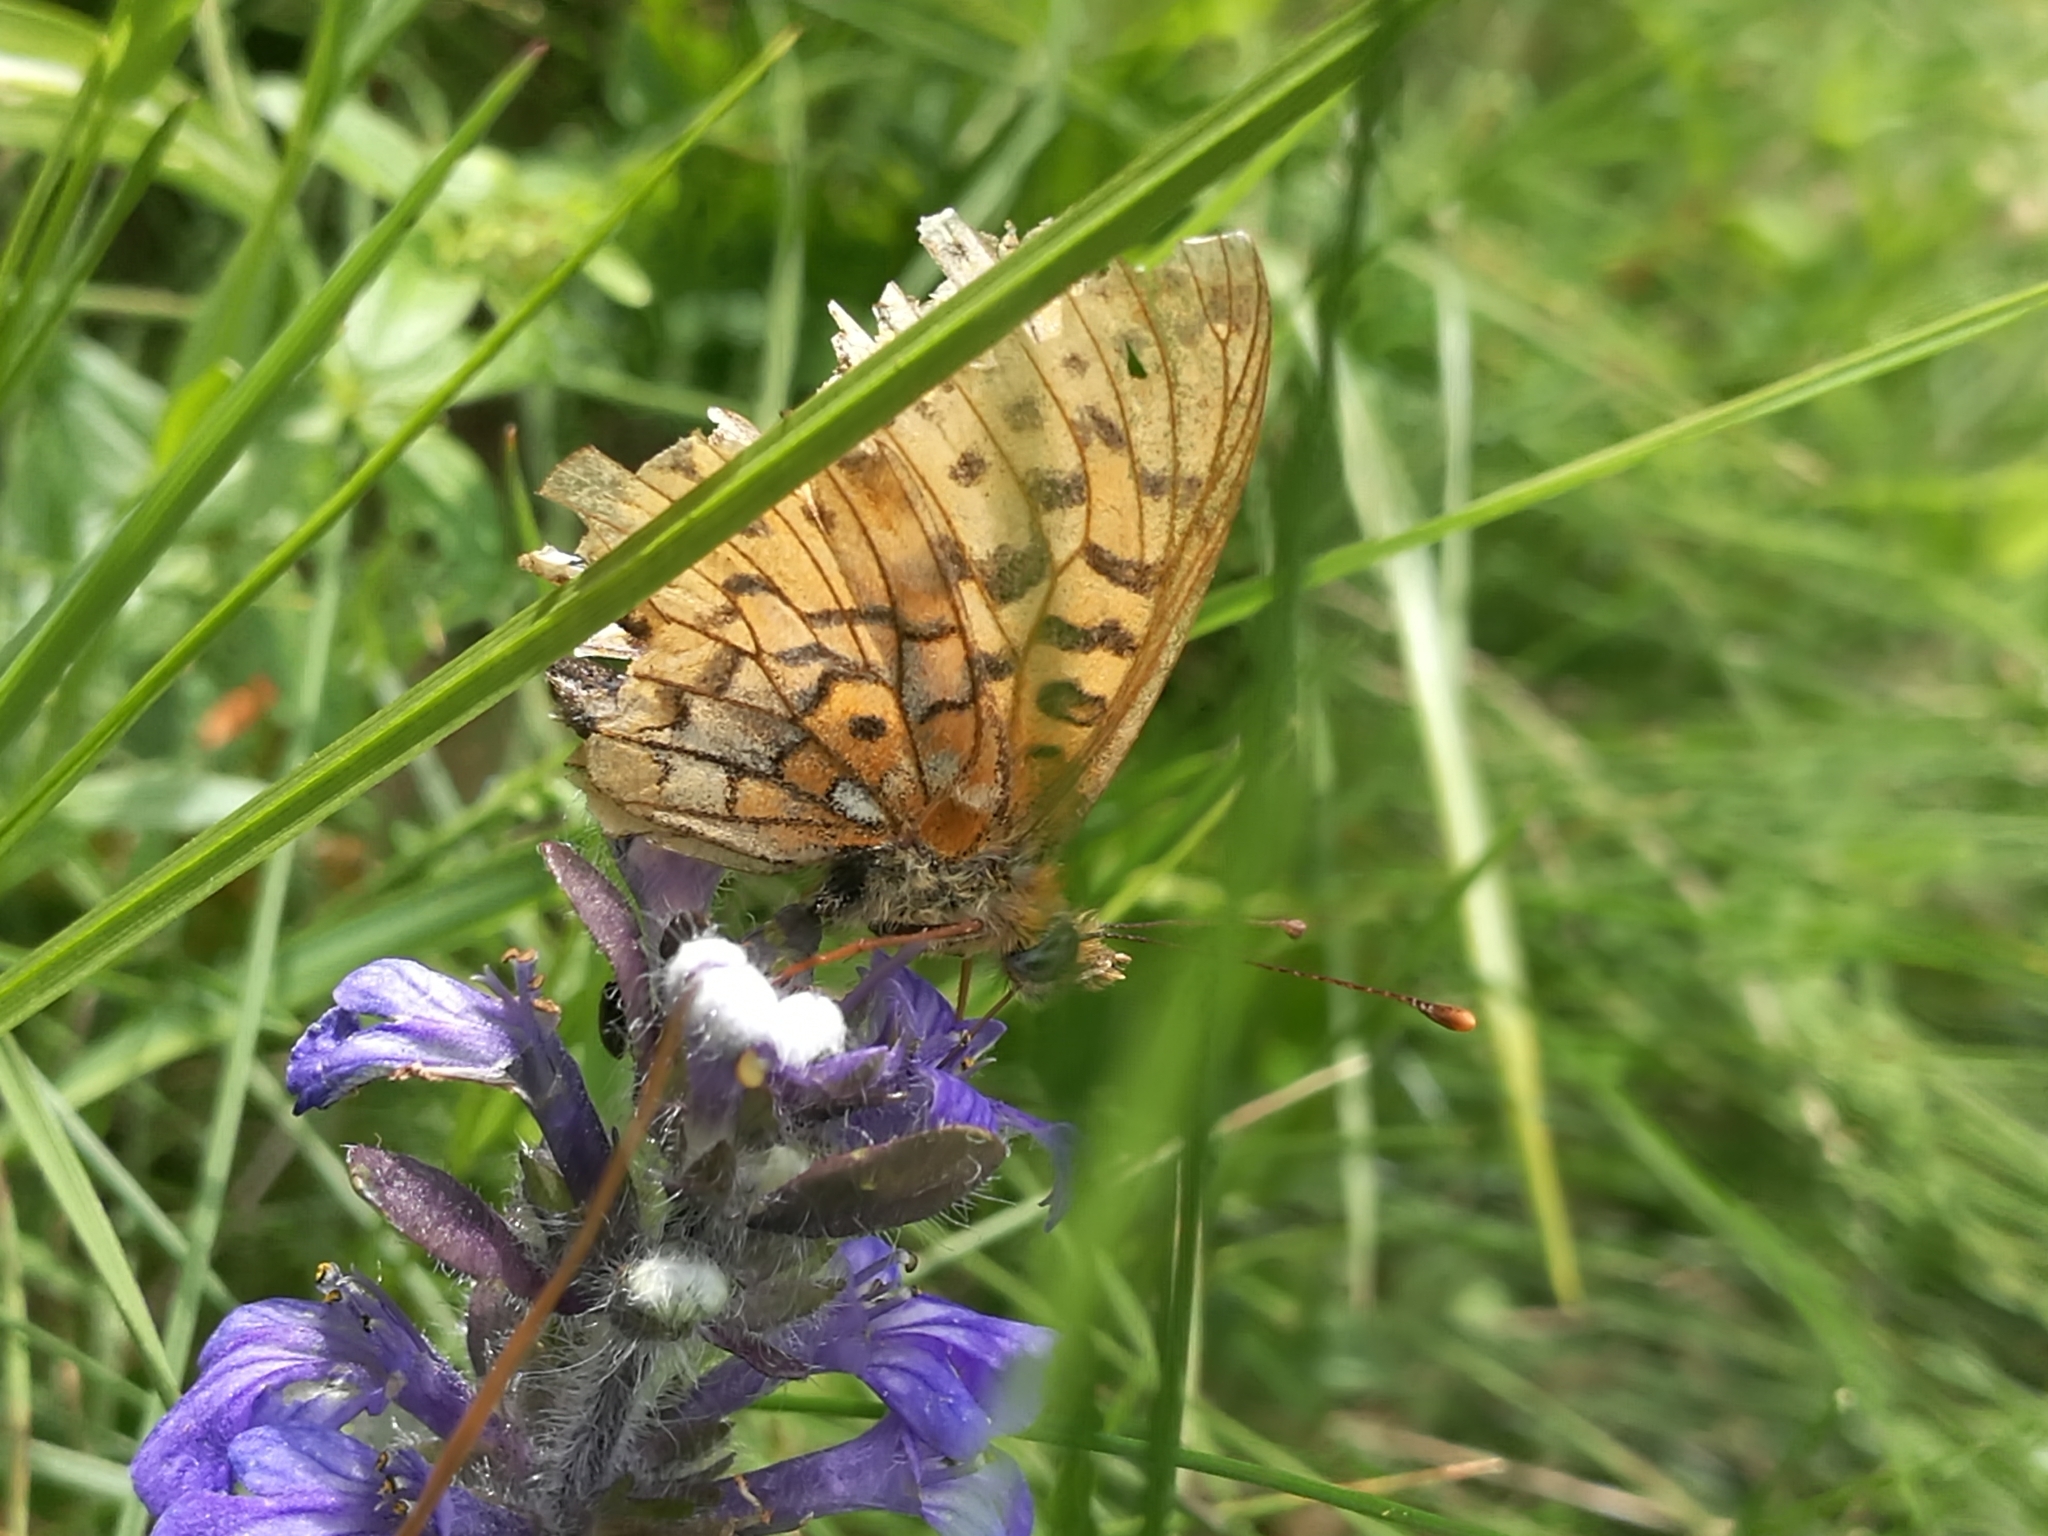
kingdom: Animalia
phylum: Arthropoda
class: Insecta
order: Lepidoptera
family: Nymphalidae
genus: Clossiana
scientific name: Clossiana euphrosyne
